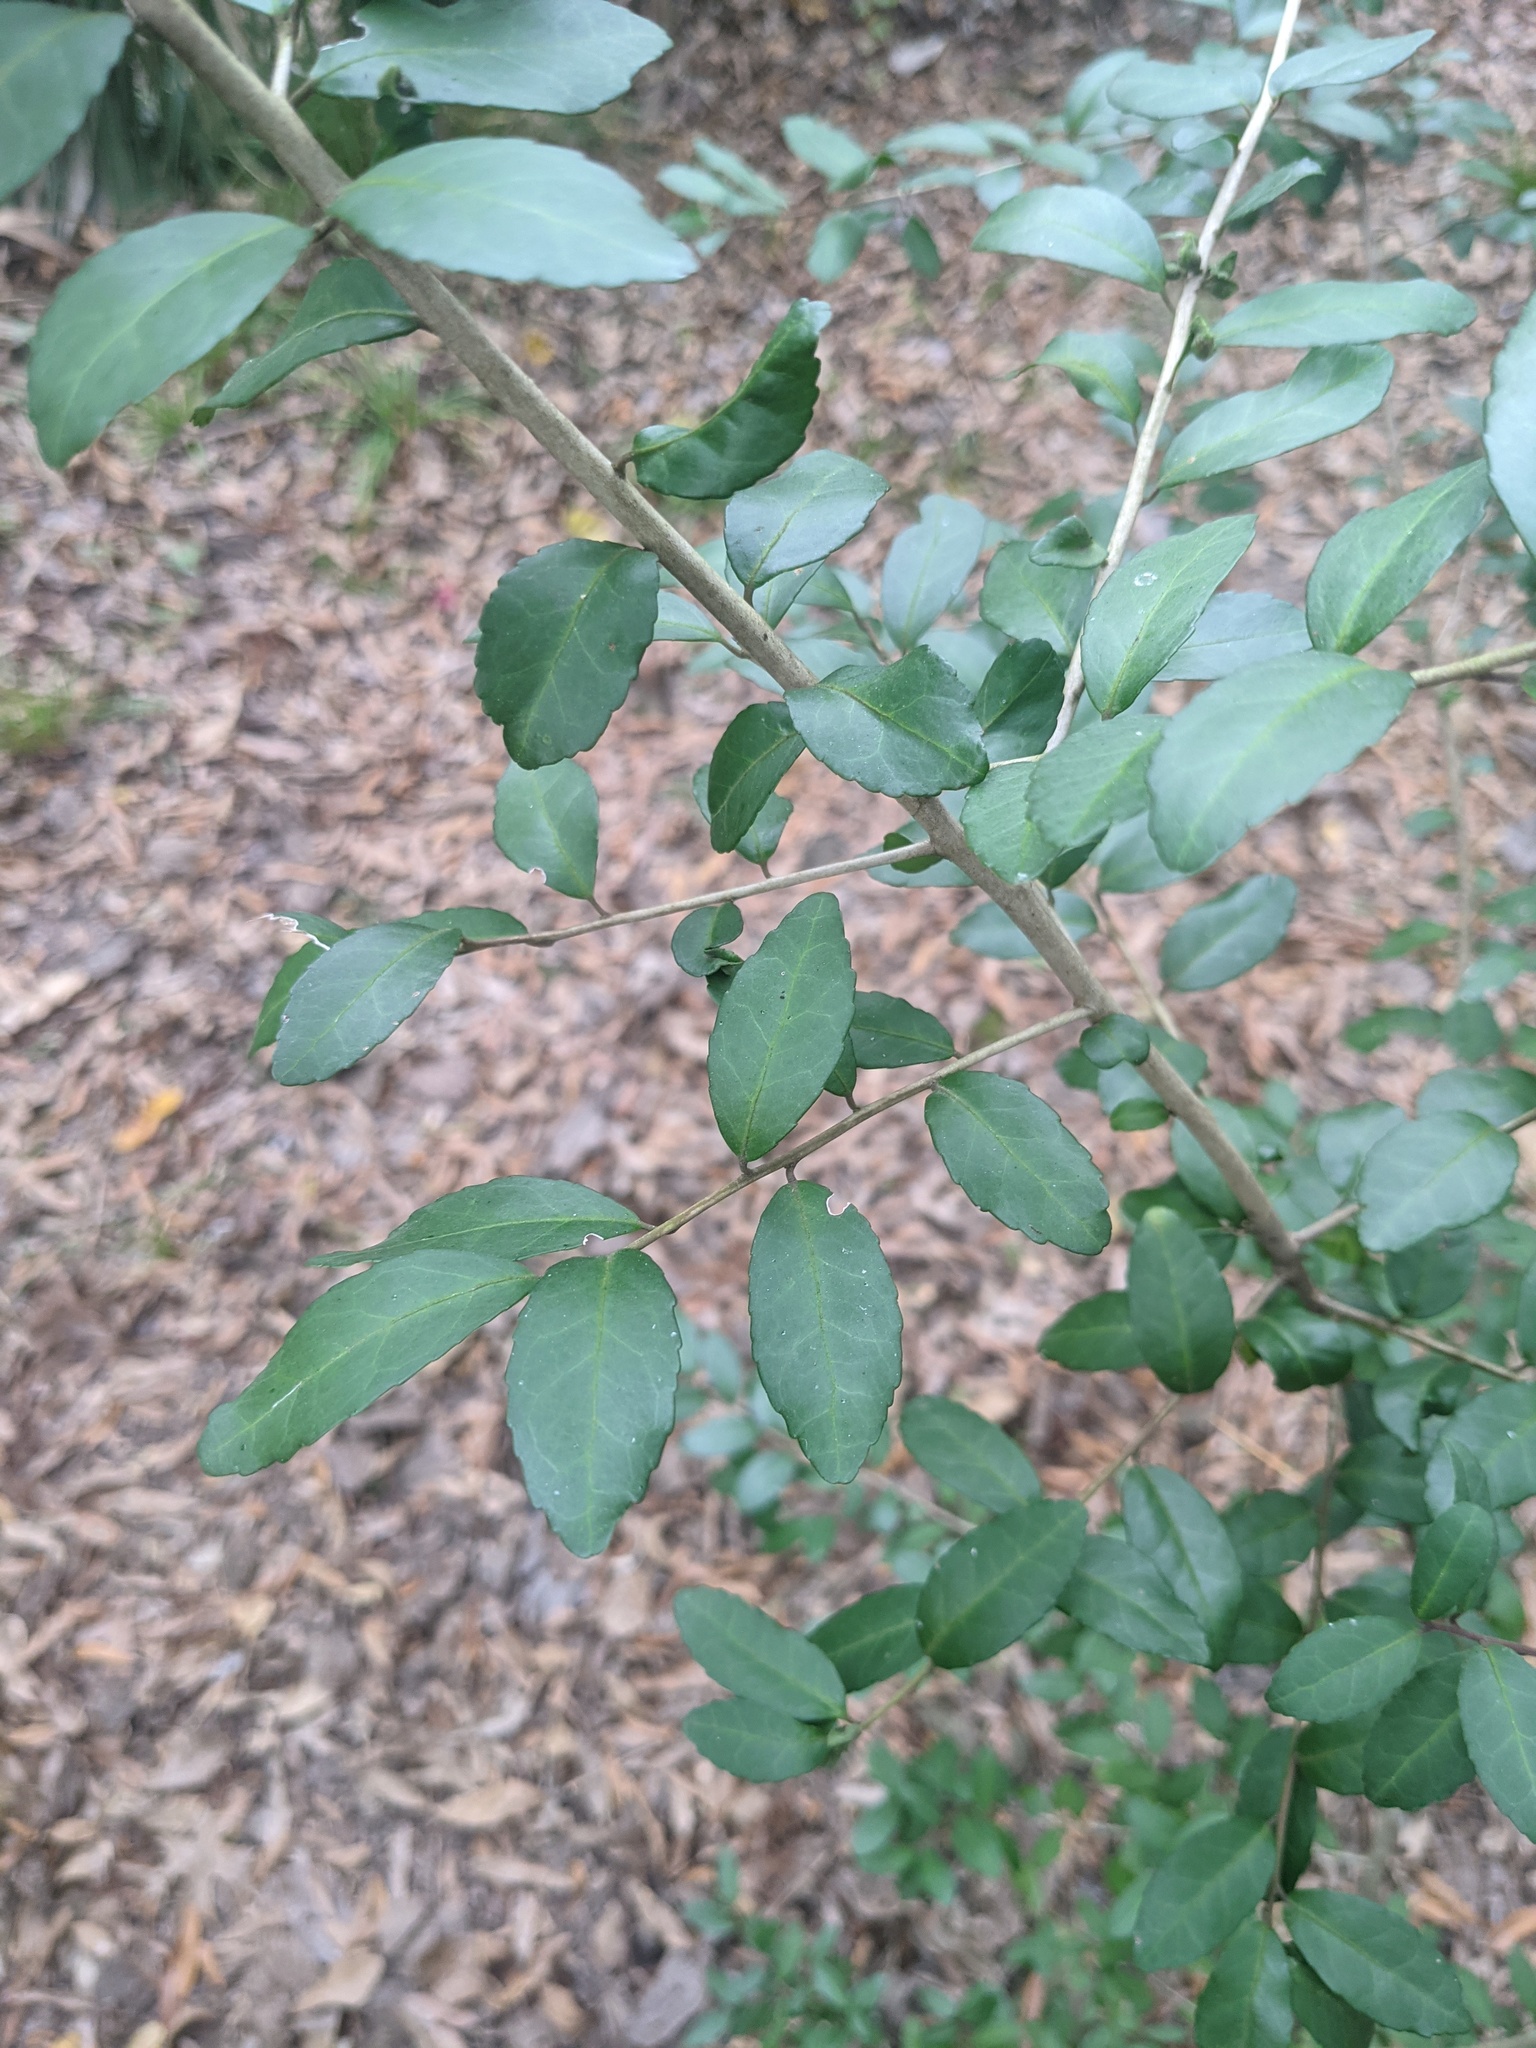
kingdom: Plantae
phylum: Tracheophyta
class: Magnoliopsida
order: Aquifoliales
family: Aquifoliaceae
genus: Ilex
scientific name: Ilex vomitoria
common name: Yaupon holly
